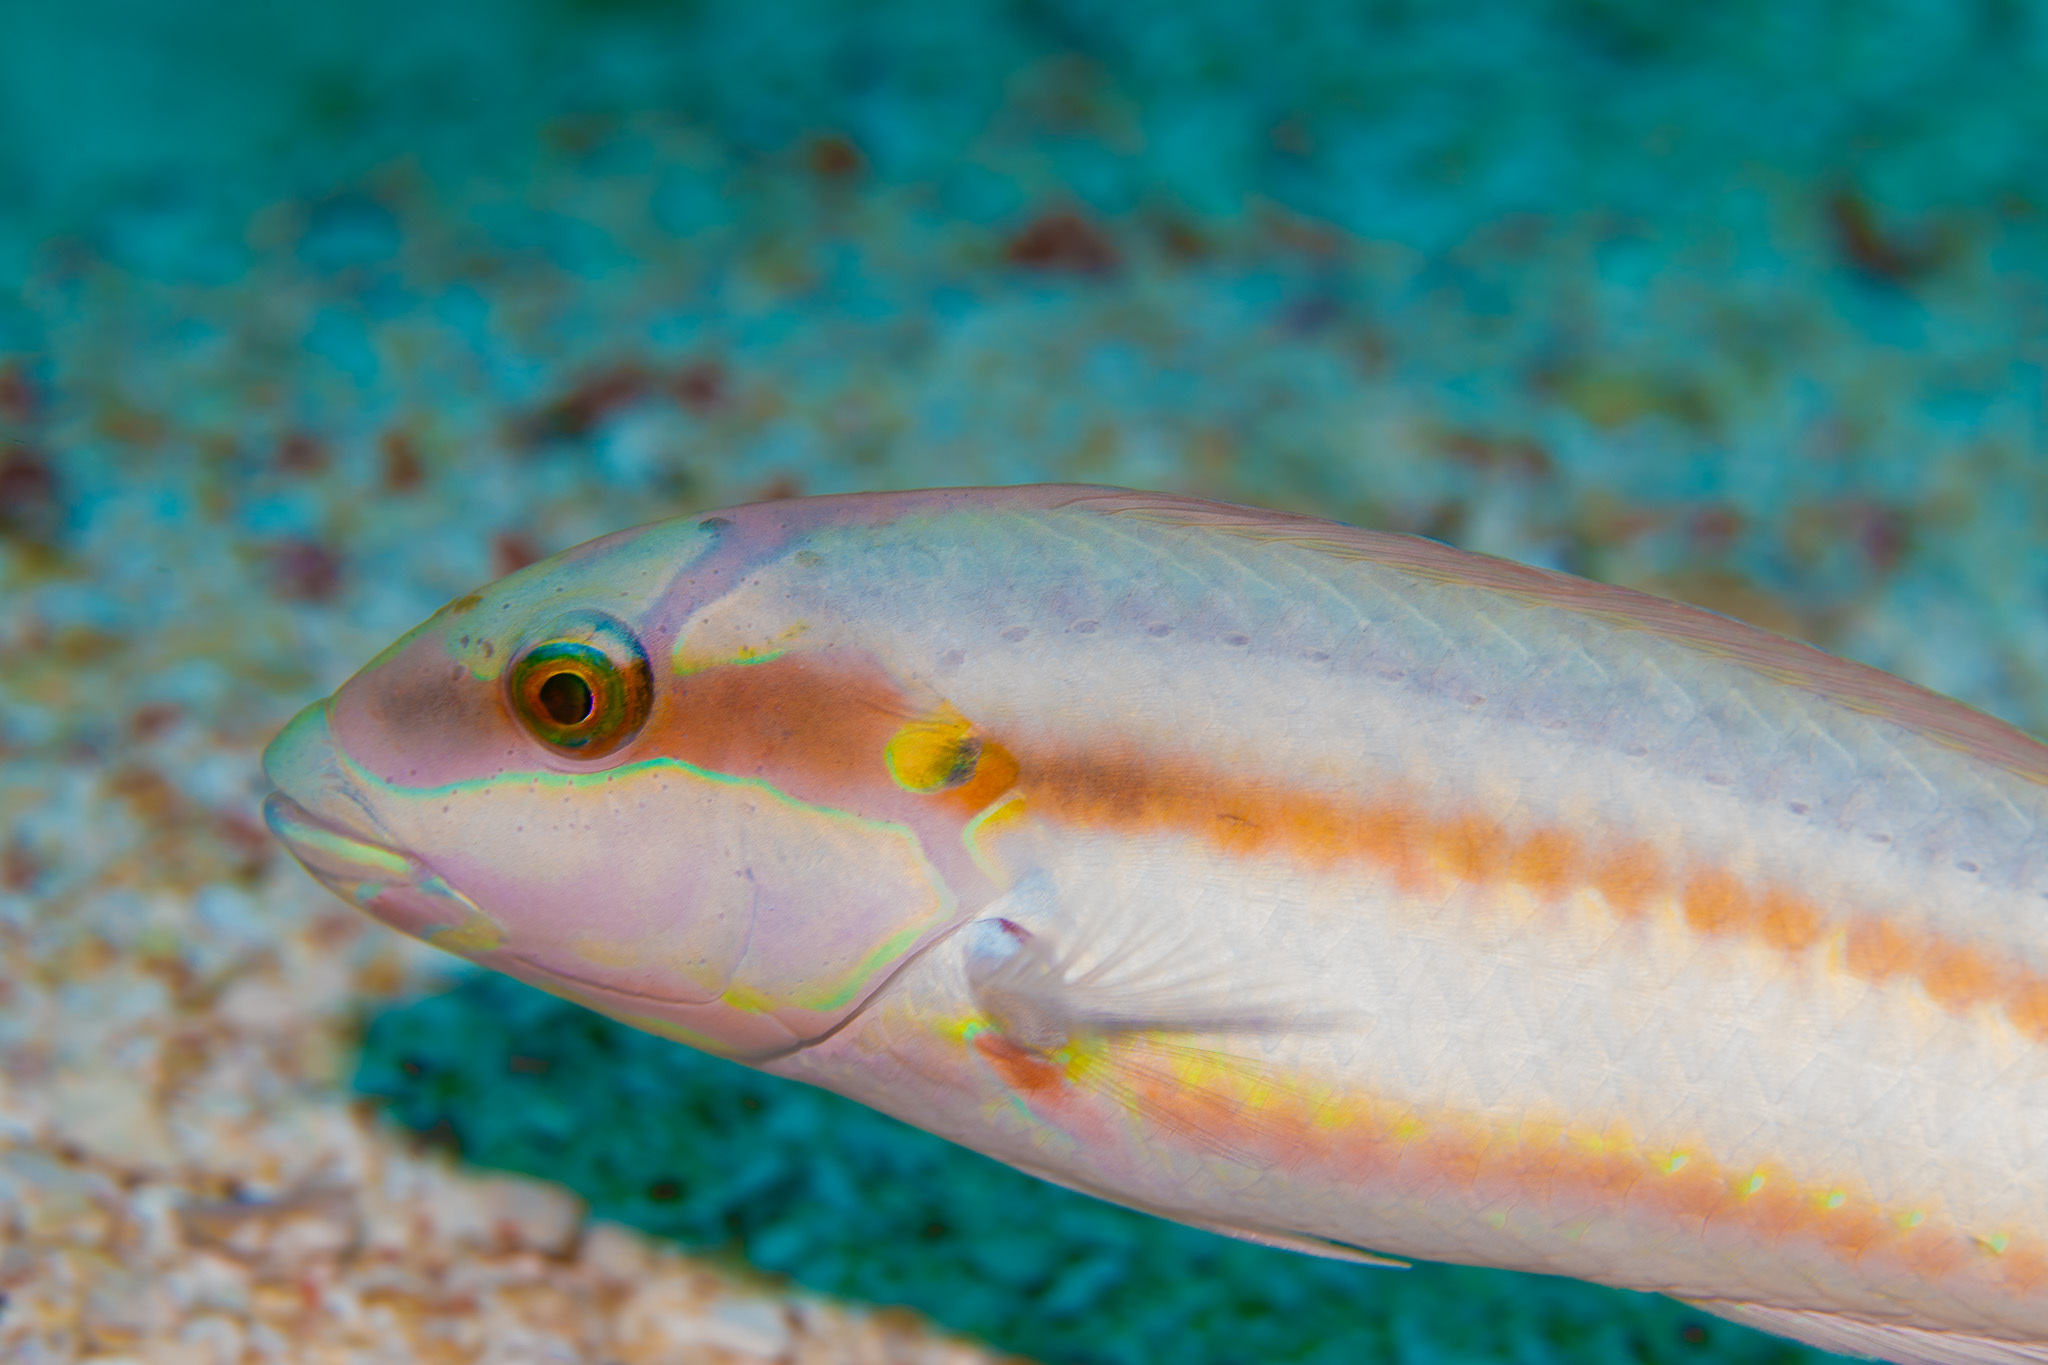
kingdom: Animalia
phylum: Chordata
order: Perciformes
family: Labridae
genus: Halichoeres
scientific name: Halichoeres bivittatus
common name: Slippery dick
